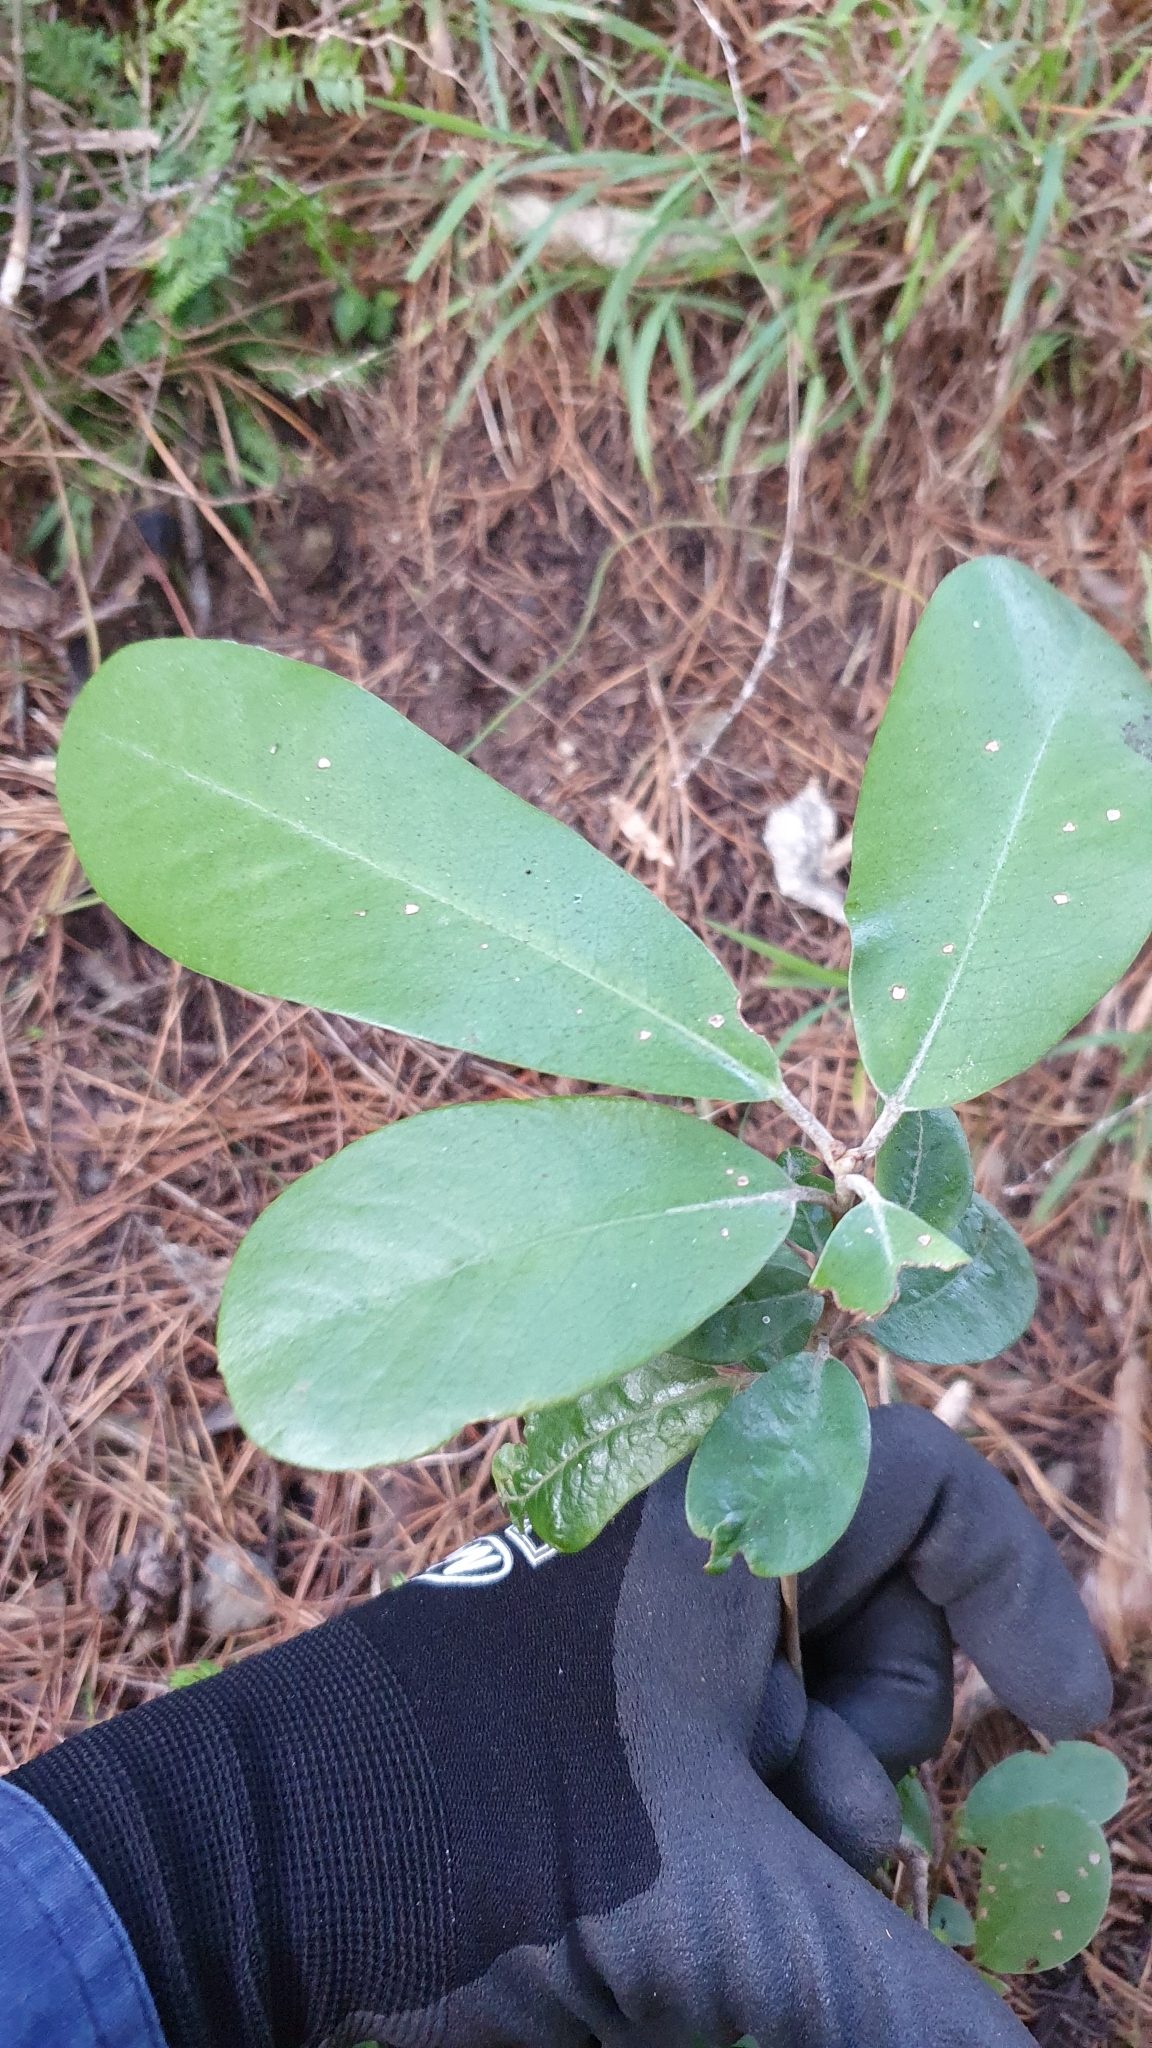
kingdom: Plantae
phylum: Tracheophyta
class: Magnoliopsida
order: Apiales
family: Pittosporaceae
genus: Pittosporum
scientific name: Pittosporum ralphii
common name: Ralph's desertwillow
